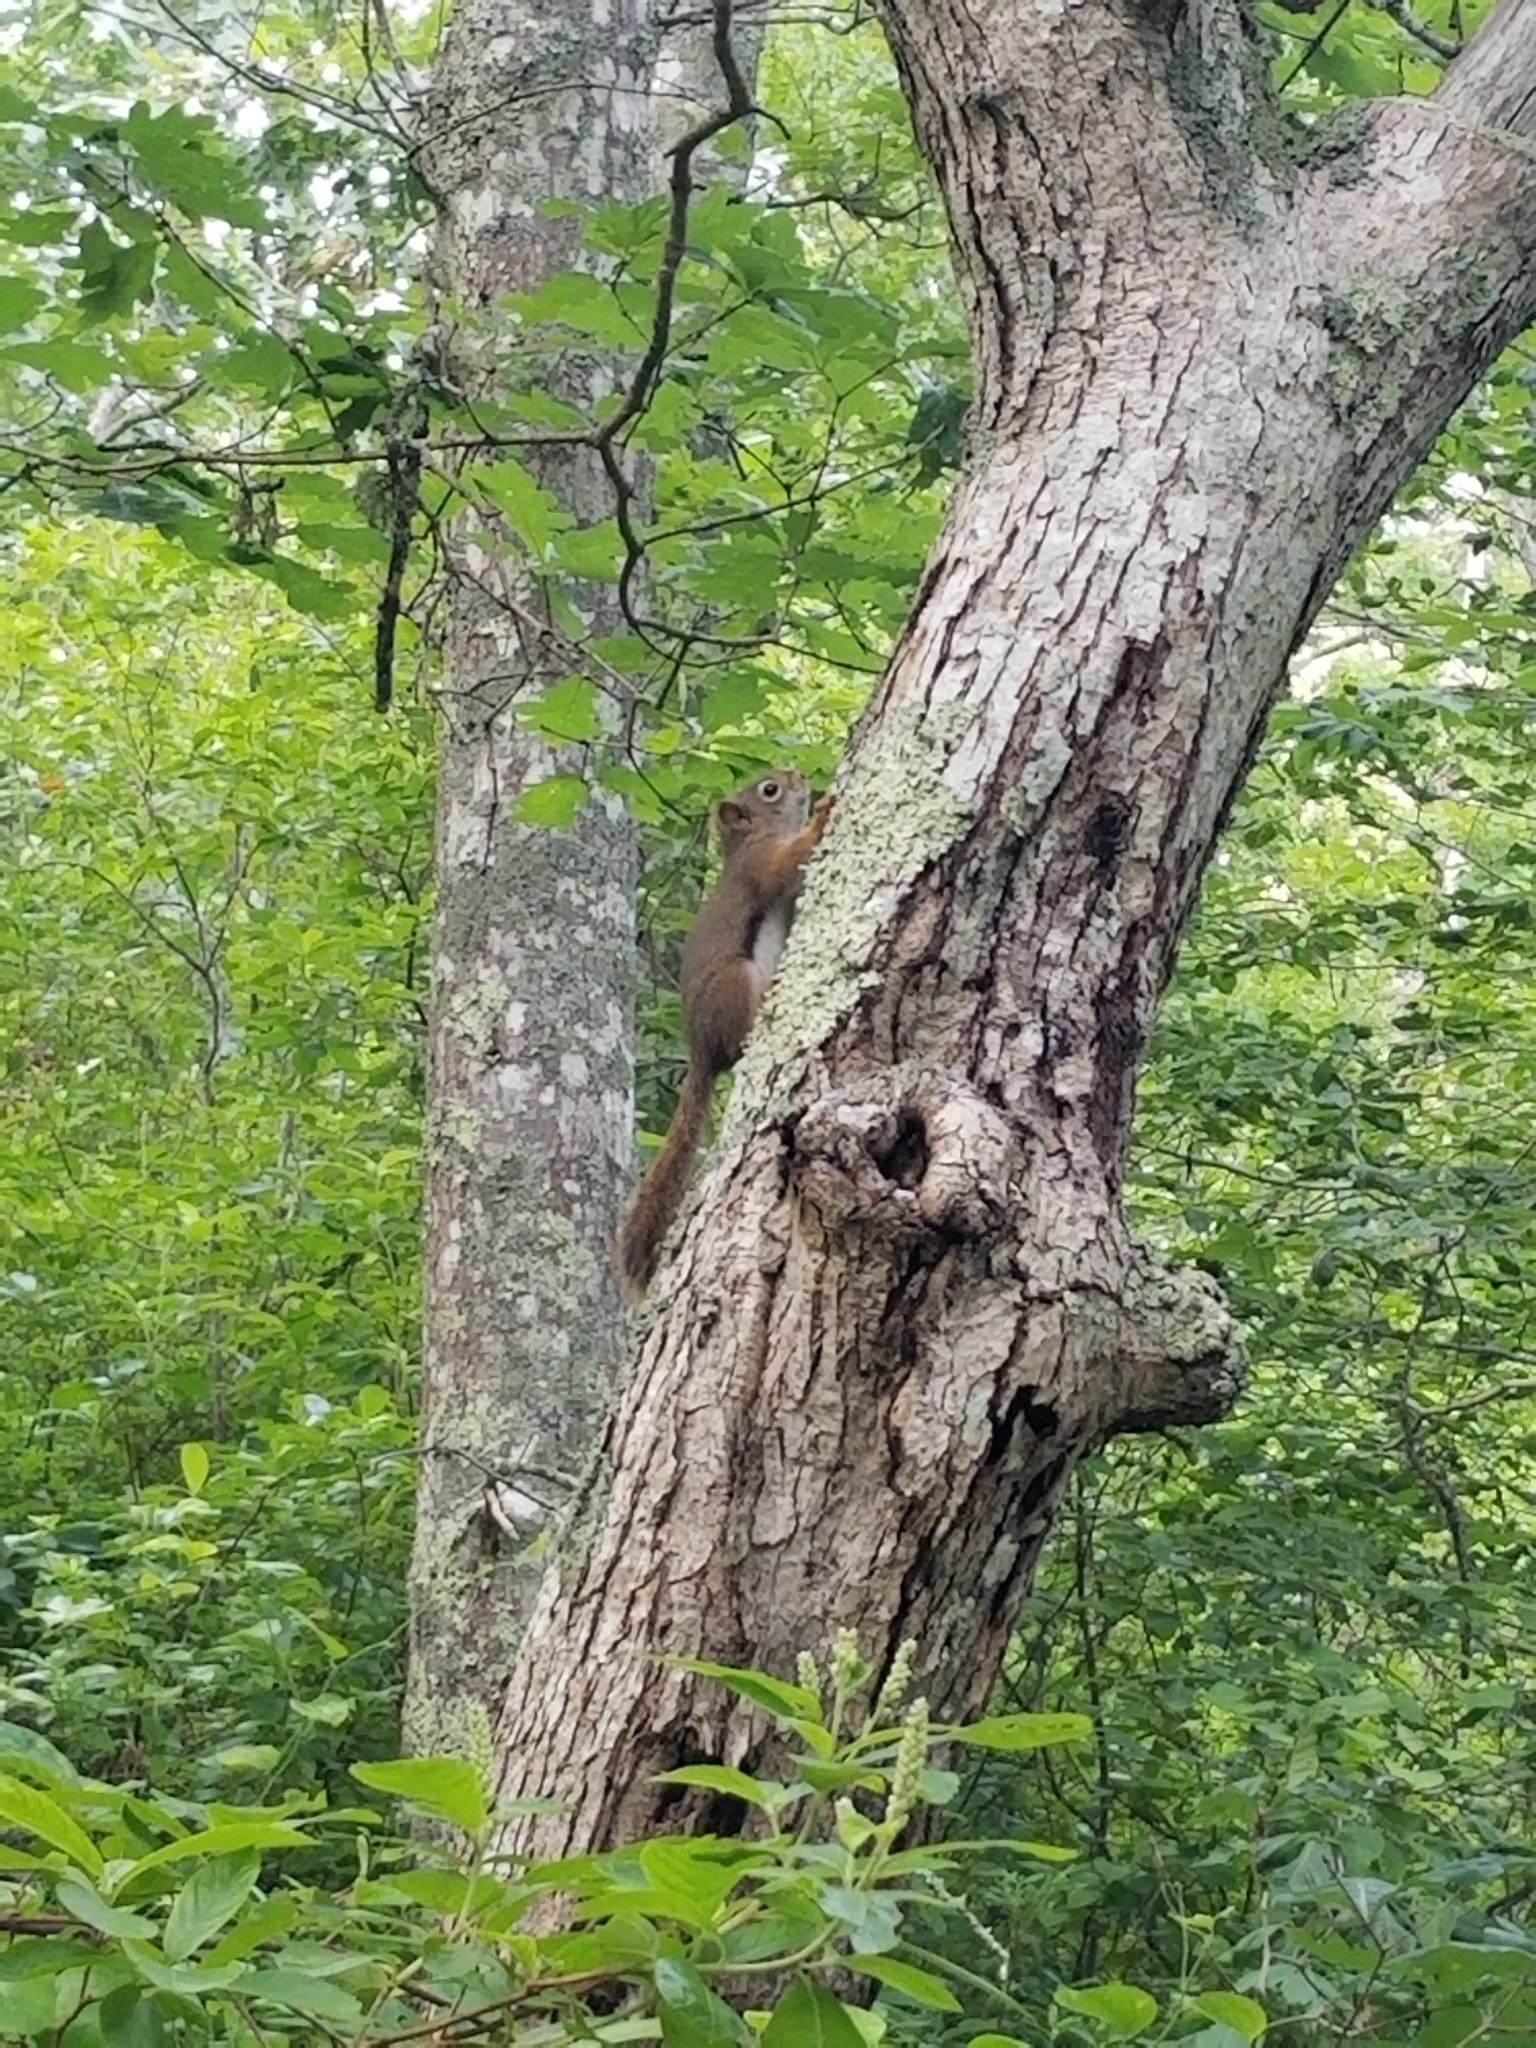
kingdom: Animalia
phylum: Chordata
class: Mammalia
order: Rodentia
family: Sciuridae
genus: Tamiasciurus
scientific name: Tamiasciurus hudsonicus
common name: Red squirrel
